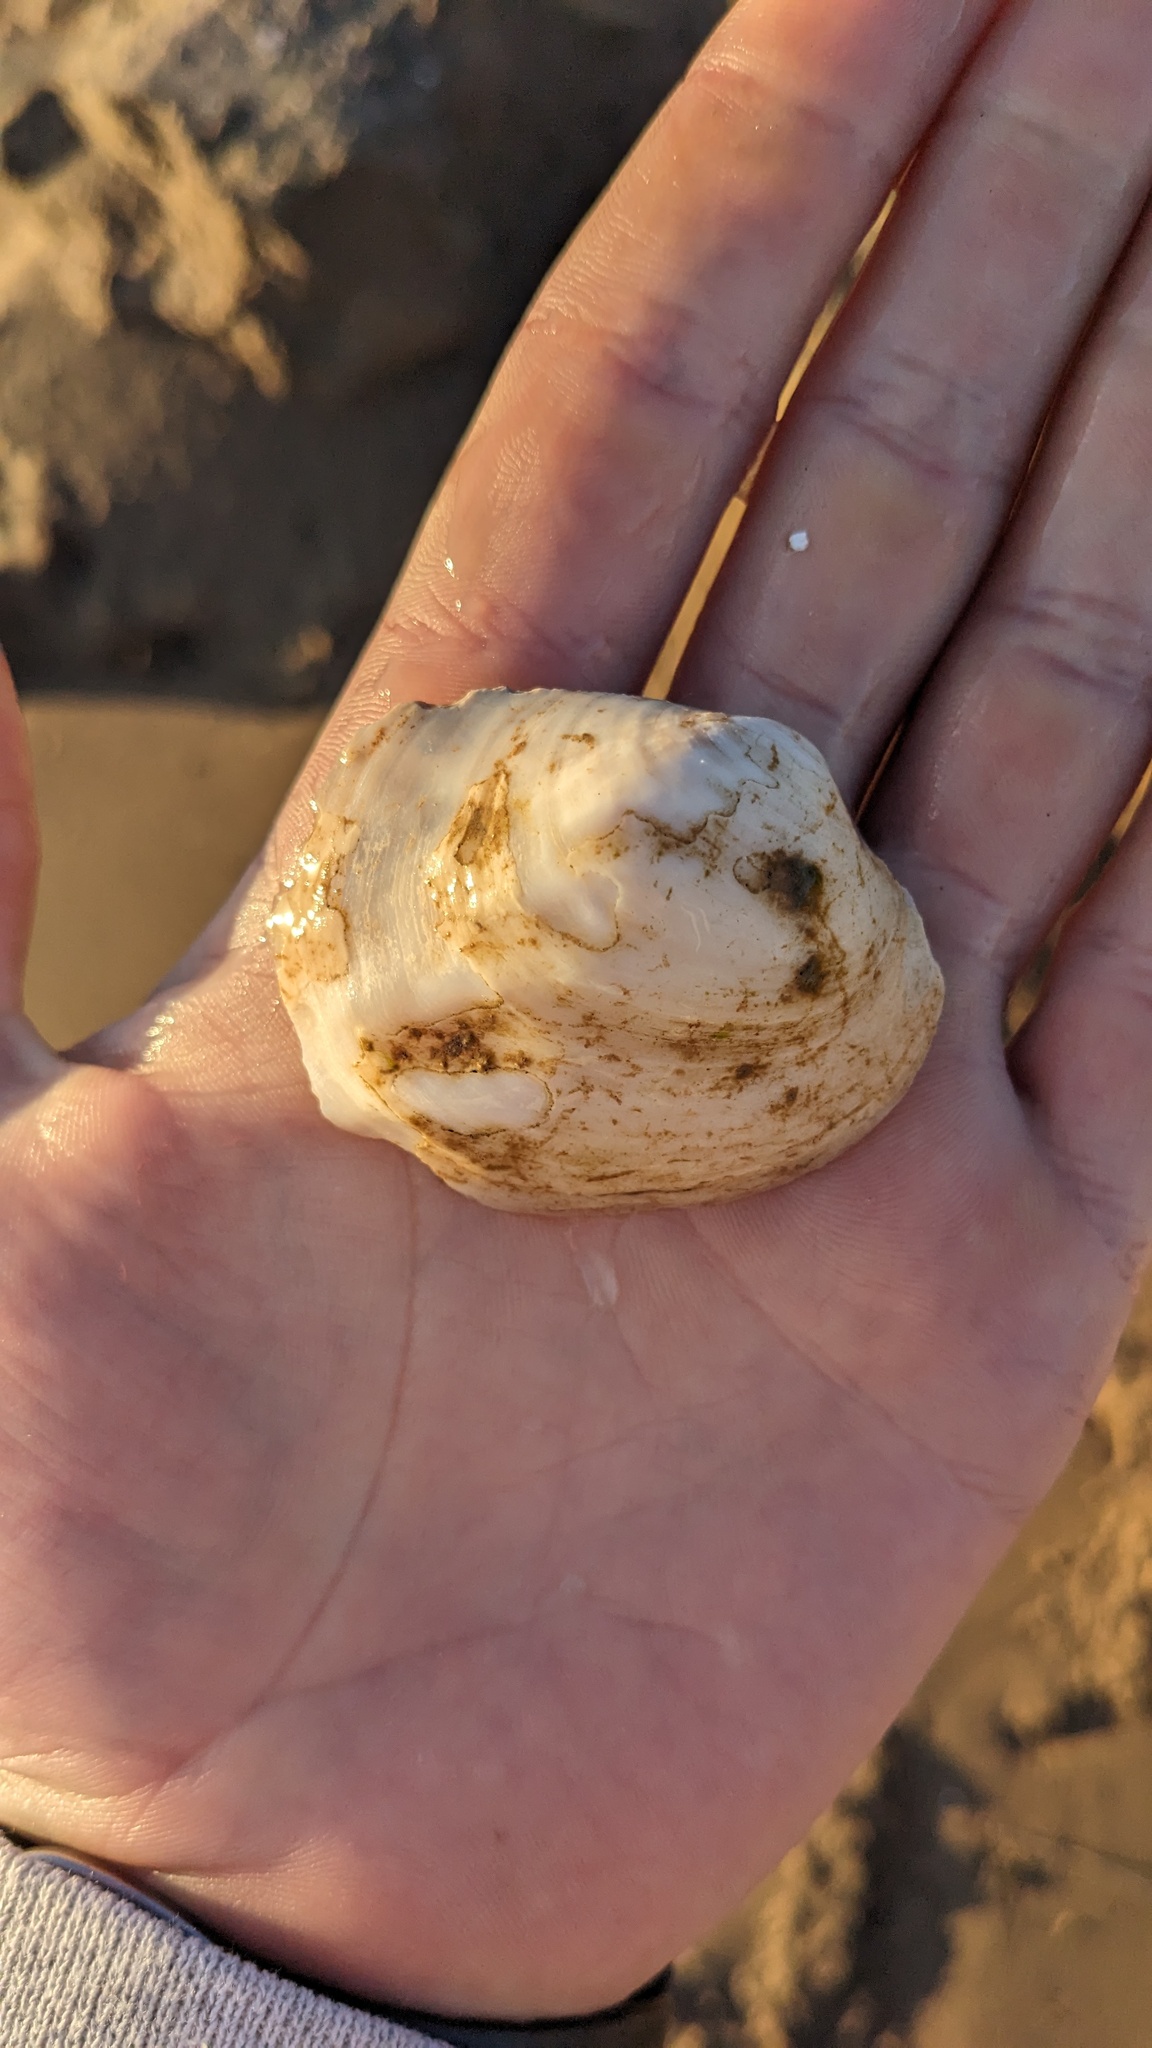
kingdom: Animalia
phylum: Mollusca
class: Bivalvia
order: Unionida
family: Unionidae
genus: Amblema
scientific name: Amblema plicata
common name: Threeridge
